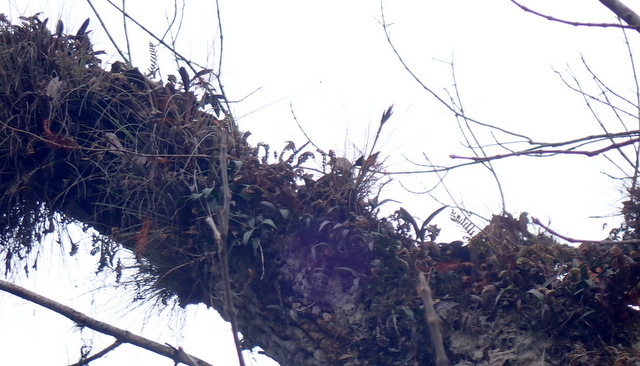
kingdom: Plantae
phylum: Tracheophyta
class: Liliopsida
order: Asparagales
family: Orchidaceae
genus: Epidendrum
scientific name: Epidendrum conopseum
